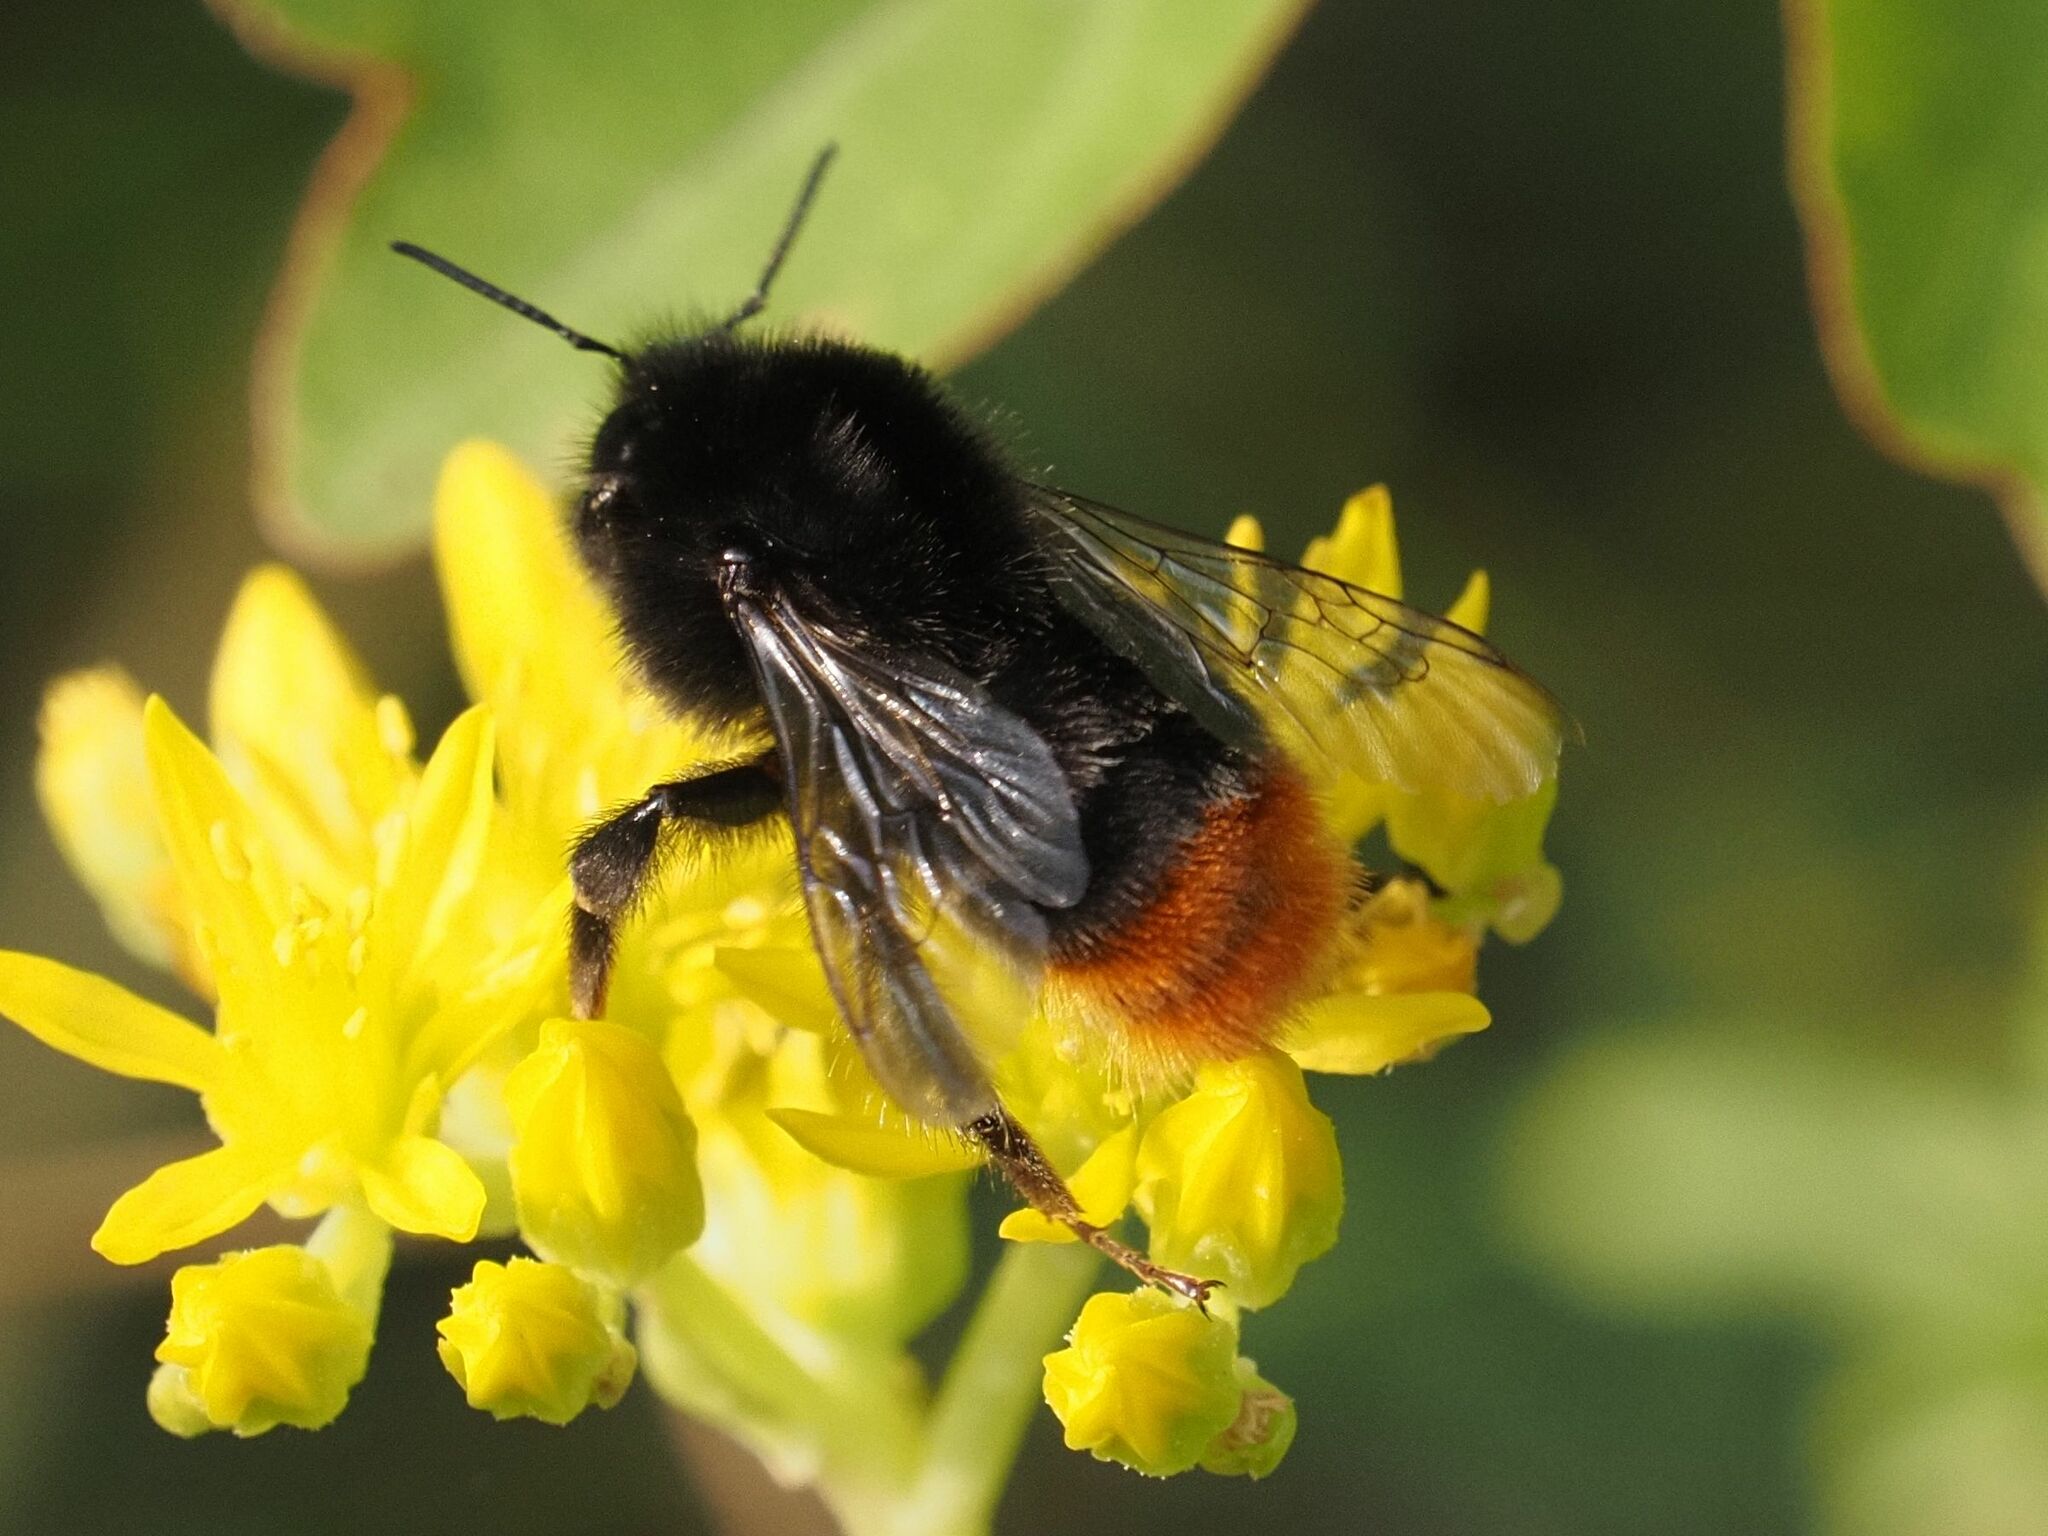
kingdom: Animalia
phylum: Arthropoda
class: Insecta
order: Hymenoptera
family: Apidae
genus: Bombus
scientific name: Bombus lapidarius
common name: Large red-tailed humble-bee
